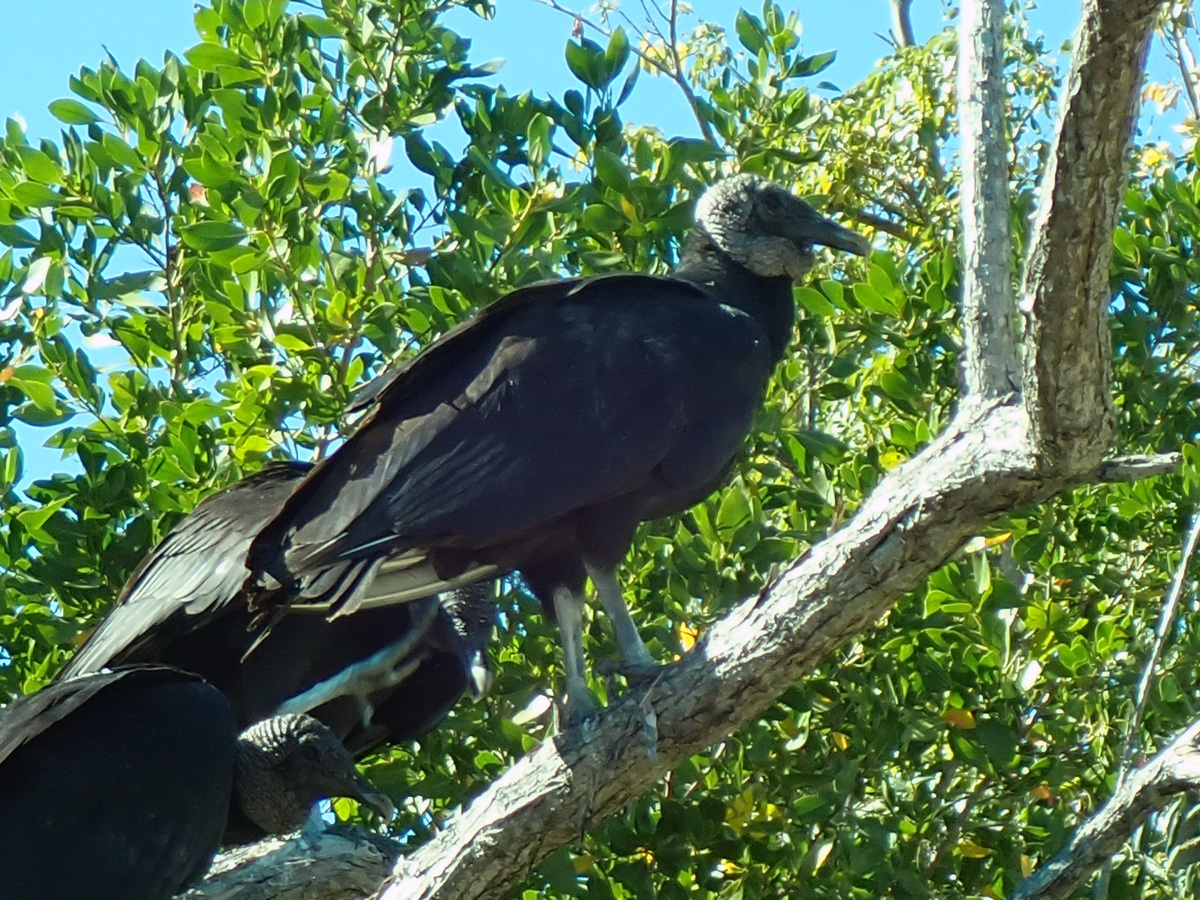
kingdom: Animalia
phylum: Chordata
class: Aves
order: Accipitriformes
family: Cathartidae
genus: Coragyps
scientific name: Coragyps atratus
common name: Black vulture
